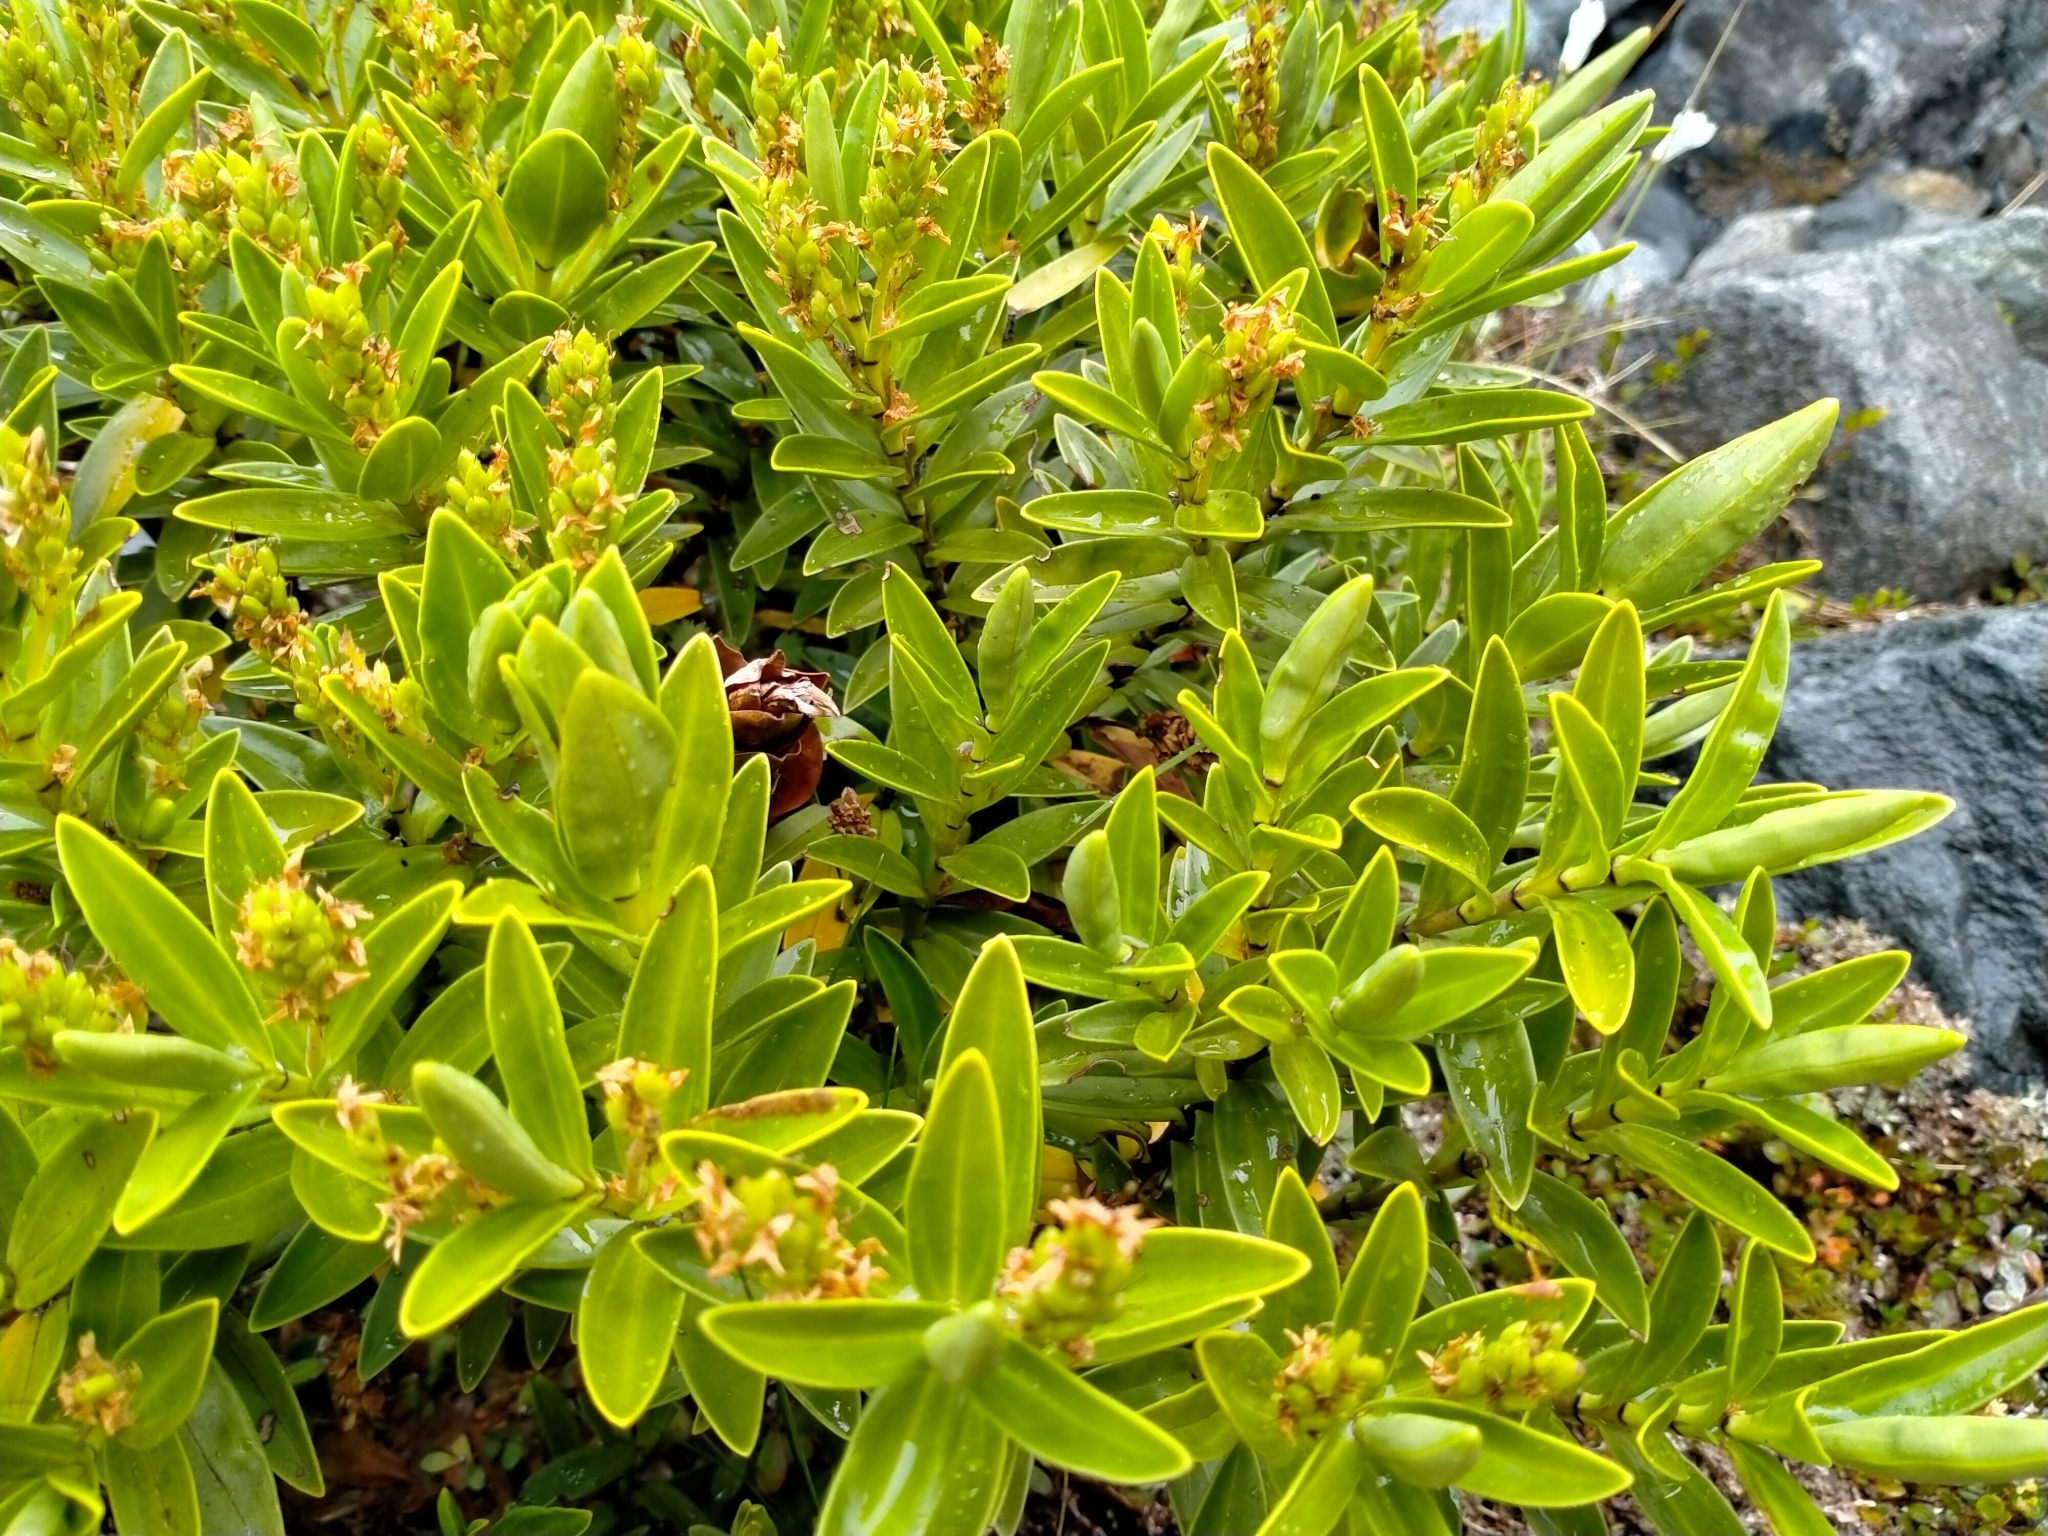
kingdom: Plantae
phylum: Tracheophyta
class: Magnoliopsida
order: Lamiales
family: Plantaginaceae
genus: Veronica
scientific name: Veronica subalpina
